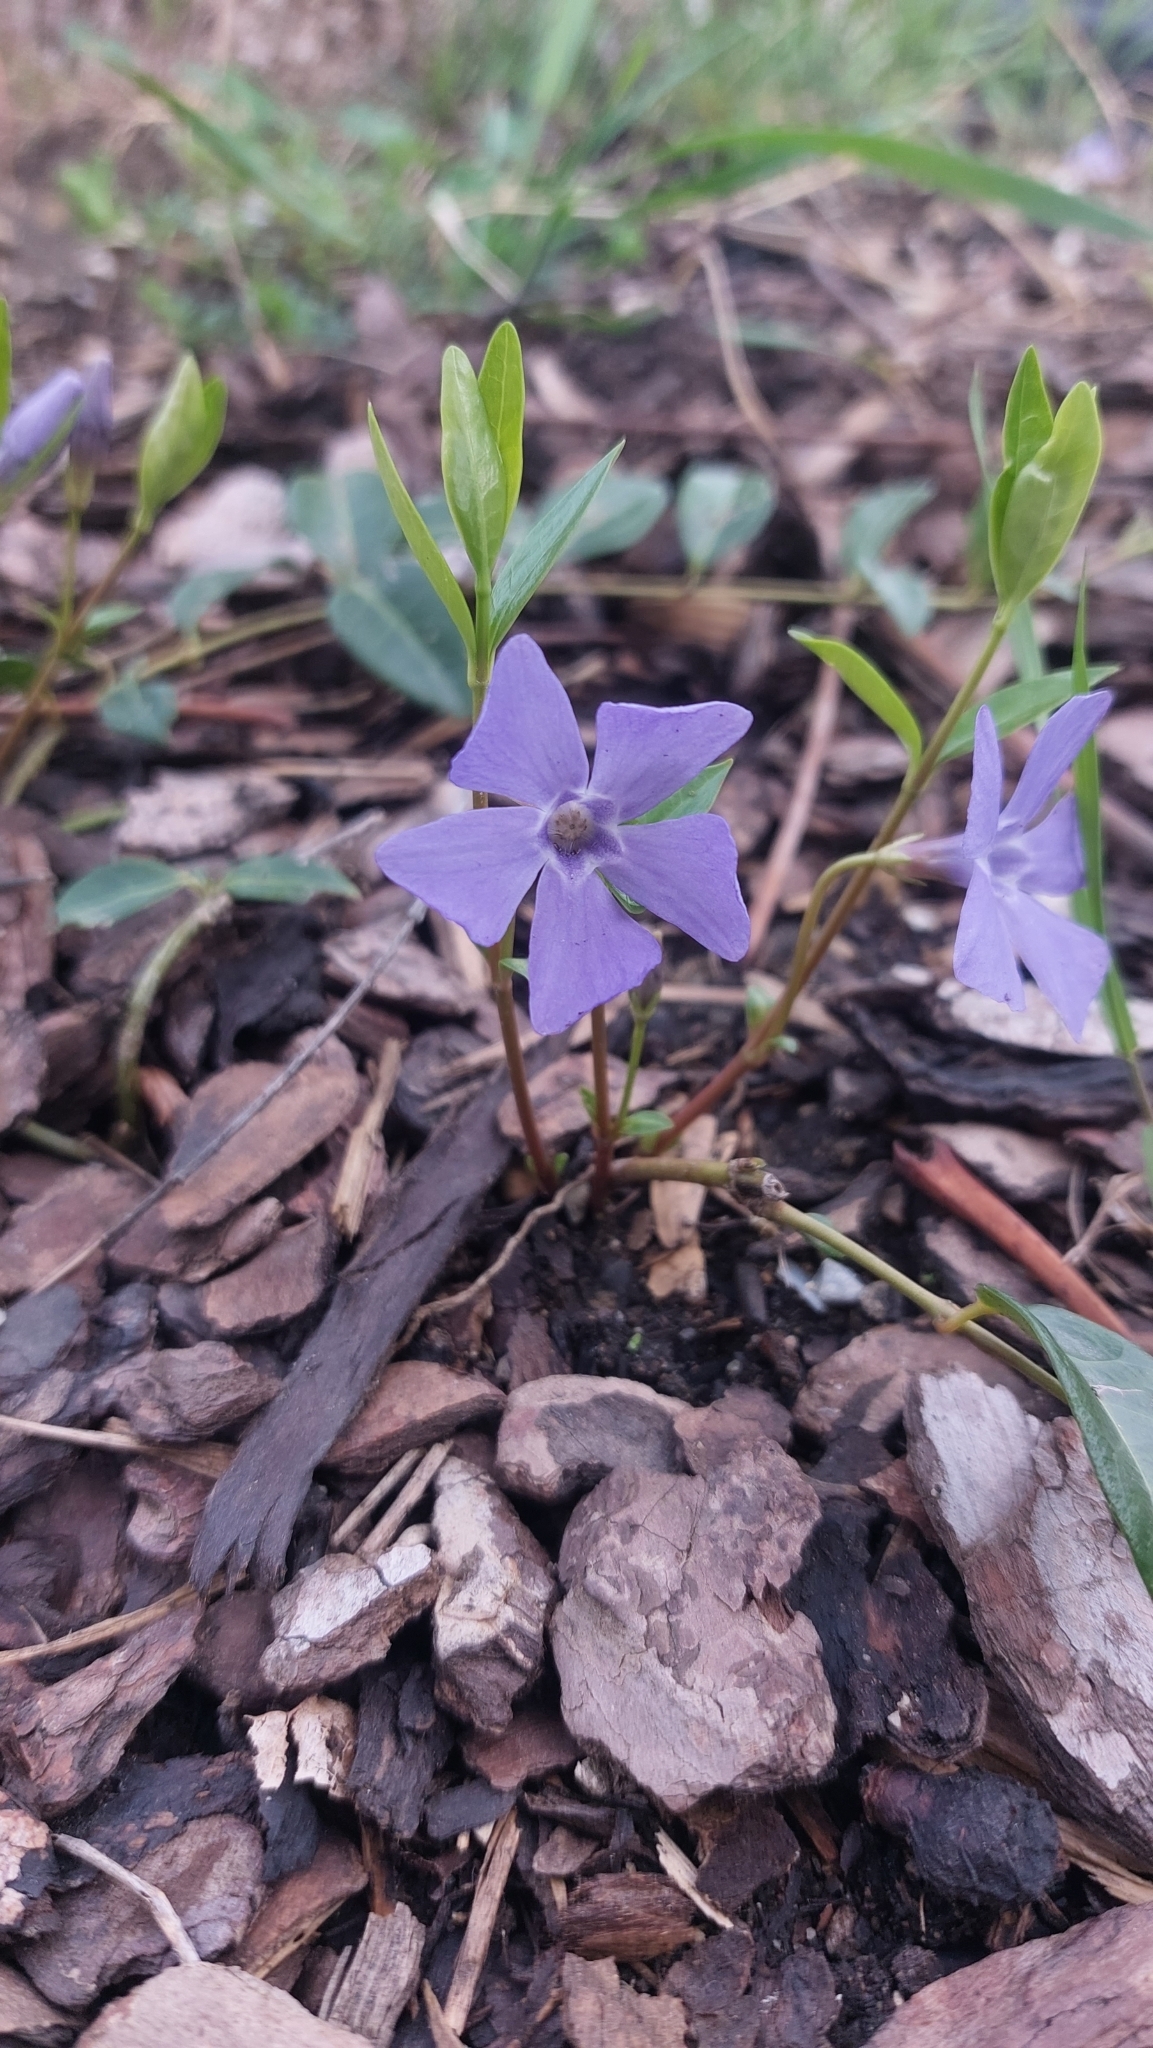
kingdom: Plantae
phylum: Tracheophyta
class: Magnoliopsida
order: Gentianales
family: Apocynaceae
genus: Vinca
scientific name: Vinca minor
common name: Lesser periwinkle
